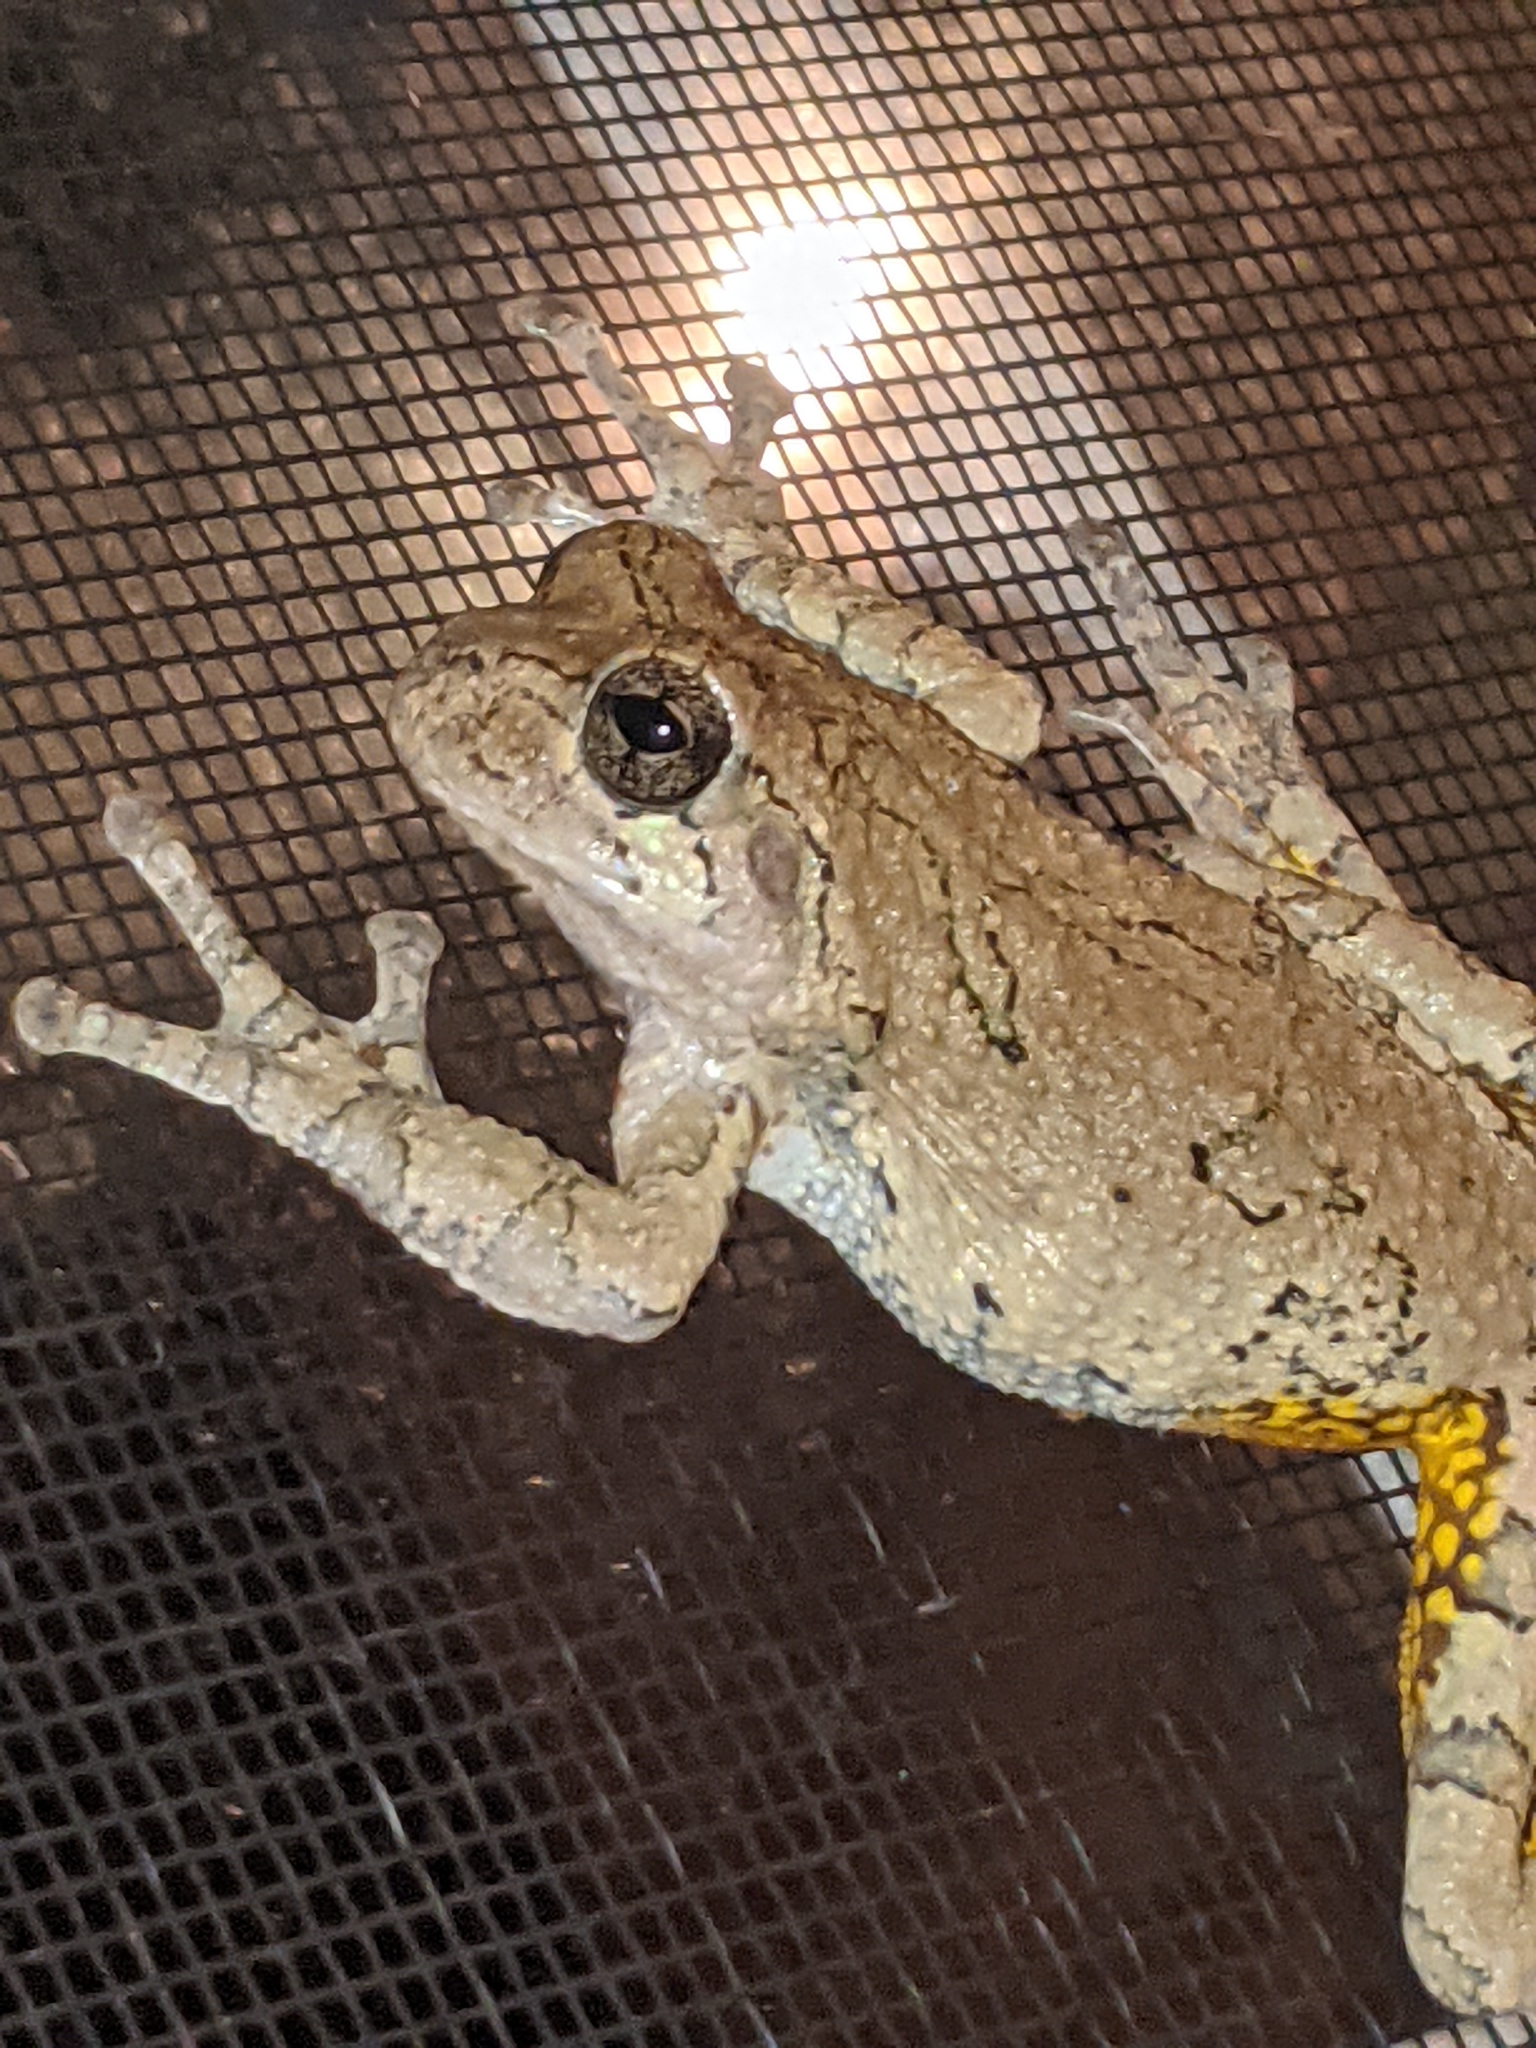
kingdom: Animalia
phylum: Chordata
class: Amphibia
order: Anura
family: Hylidae
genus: Dryophytes
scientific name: Dryophytes chrysoscelis
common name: Cope's gray treefrog
